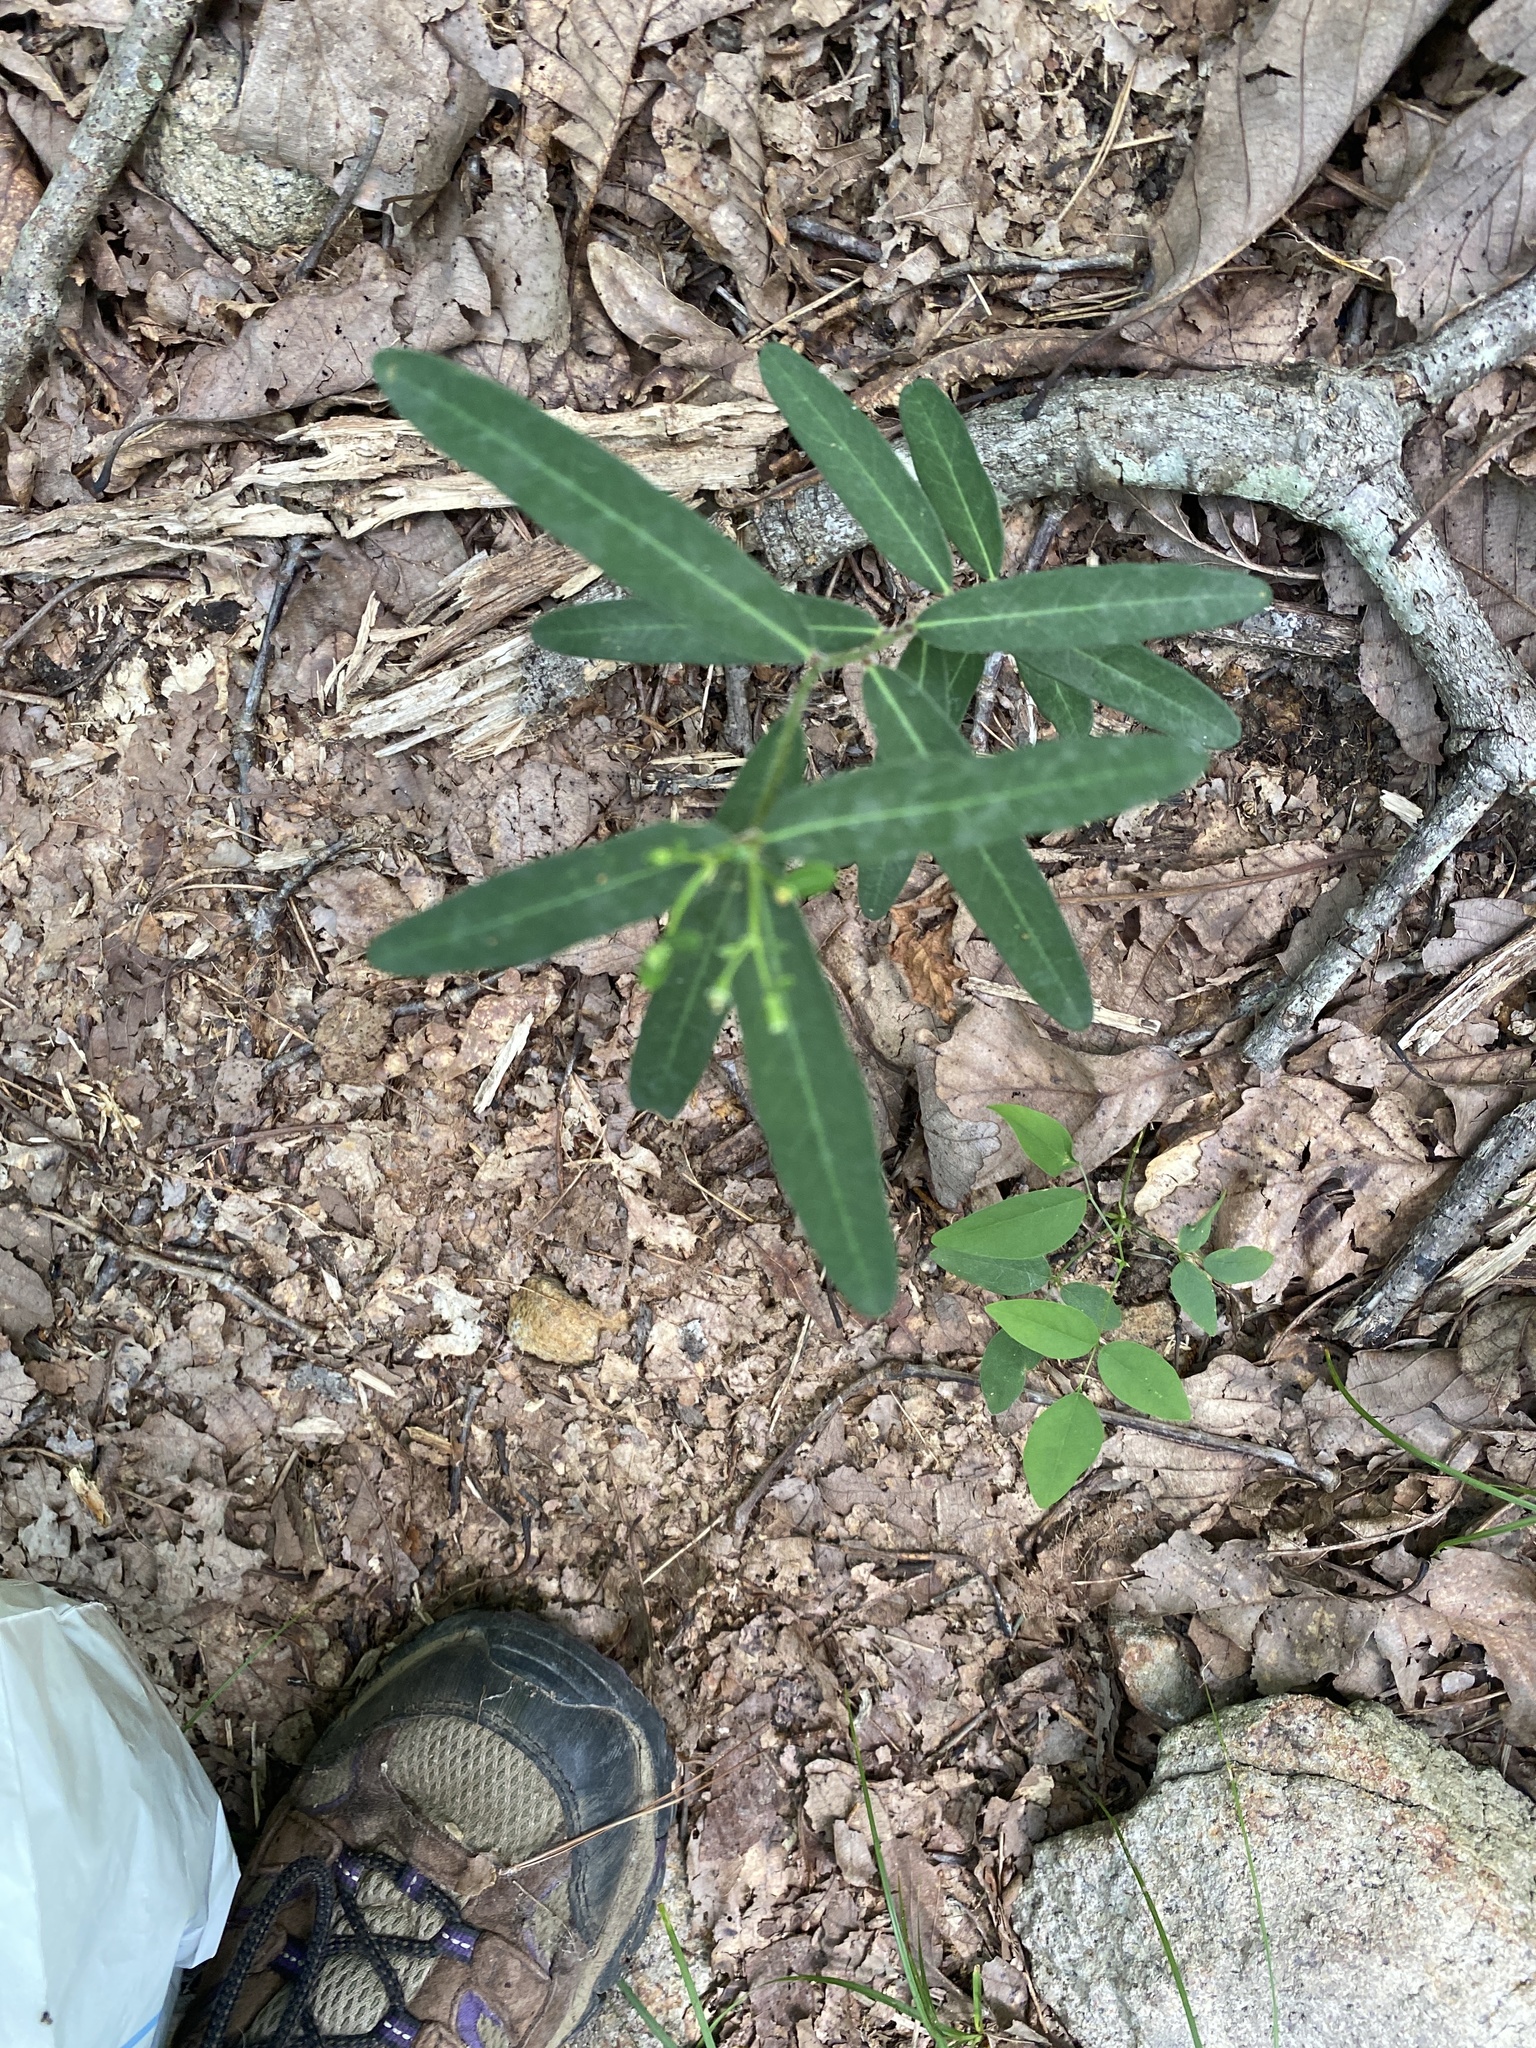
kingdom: Plantae
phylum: Tracheophyta
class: Magnoliopsida
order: Malpighiales
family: Euphorbiaceae
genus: Euphorbia
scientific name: Euphorbia corollata
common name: Flowering spurge
